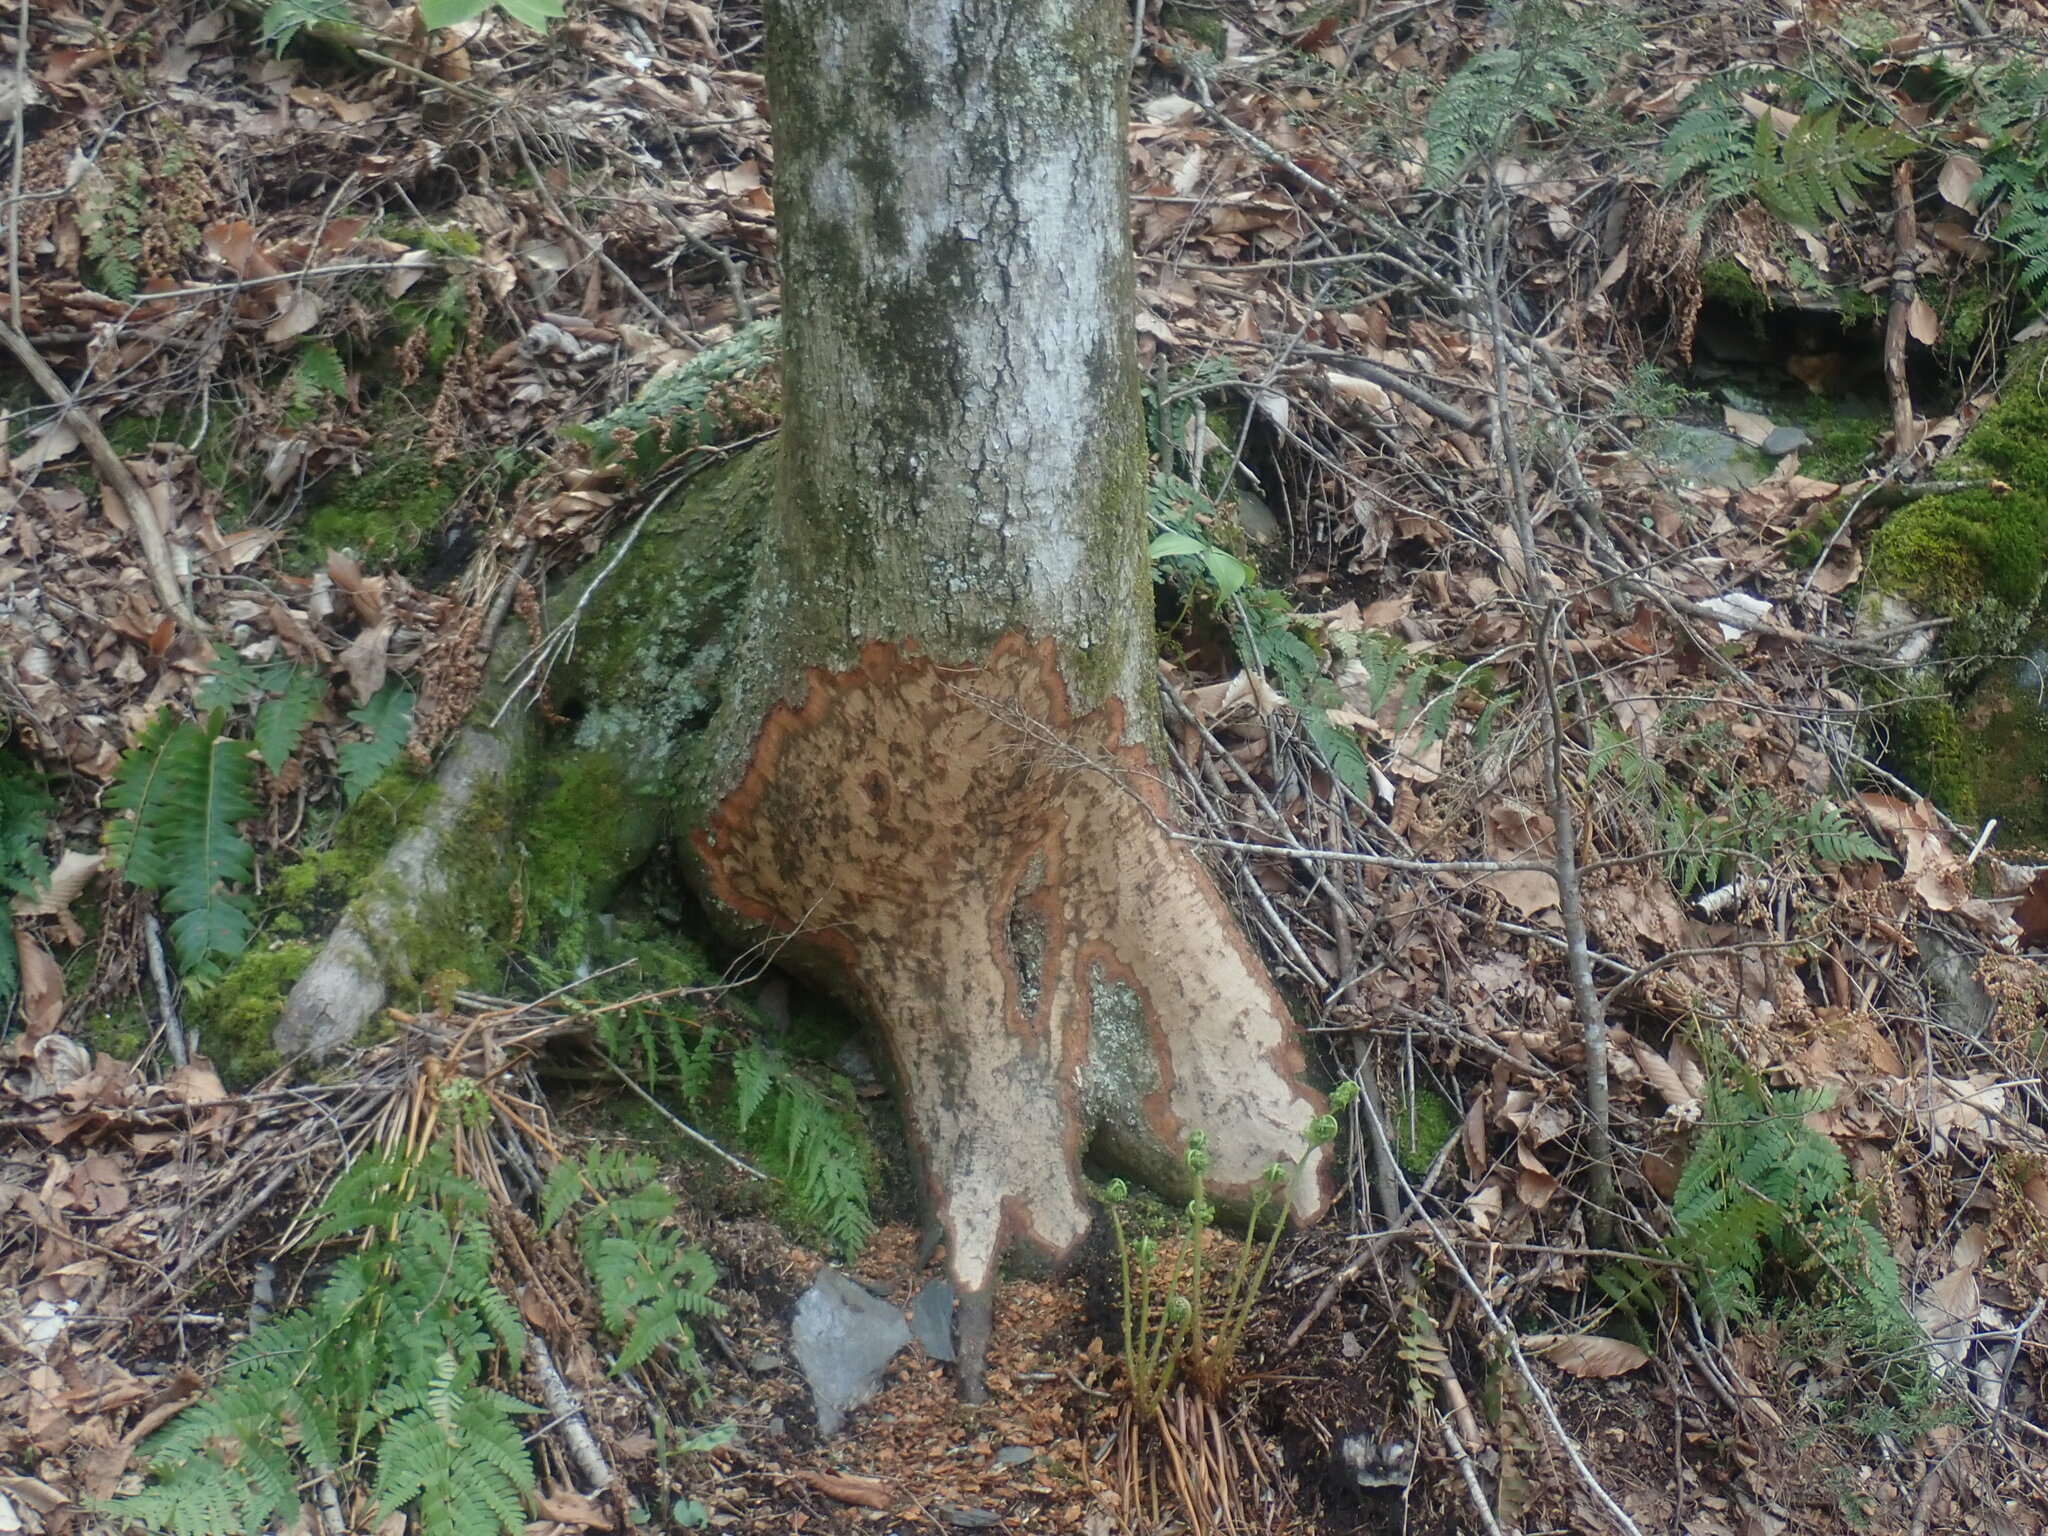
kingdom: Animalia
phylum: Chordata
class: Mammalia
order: Rodentia
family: Castoridae
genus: Castor
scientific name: Castor canadensis
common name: American beaver
